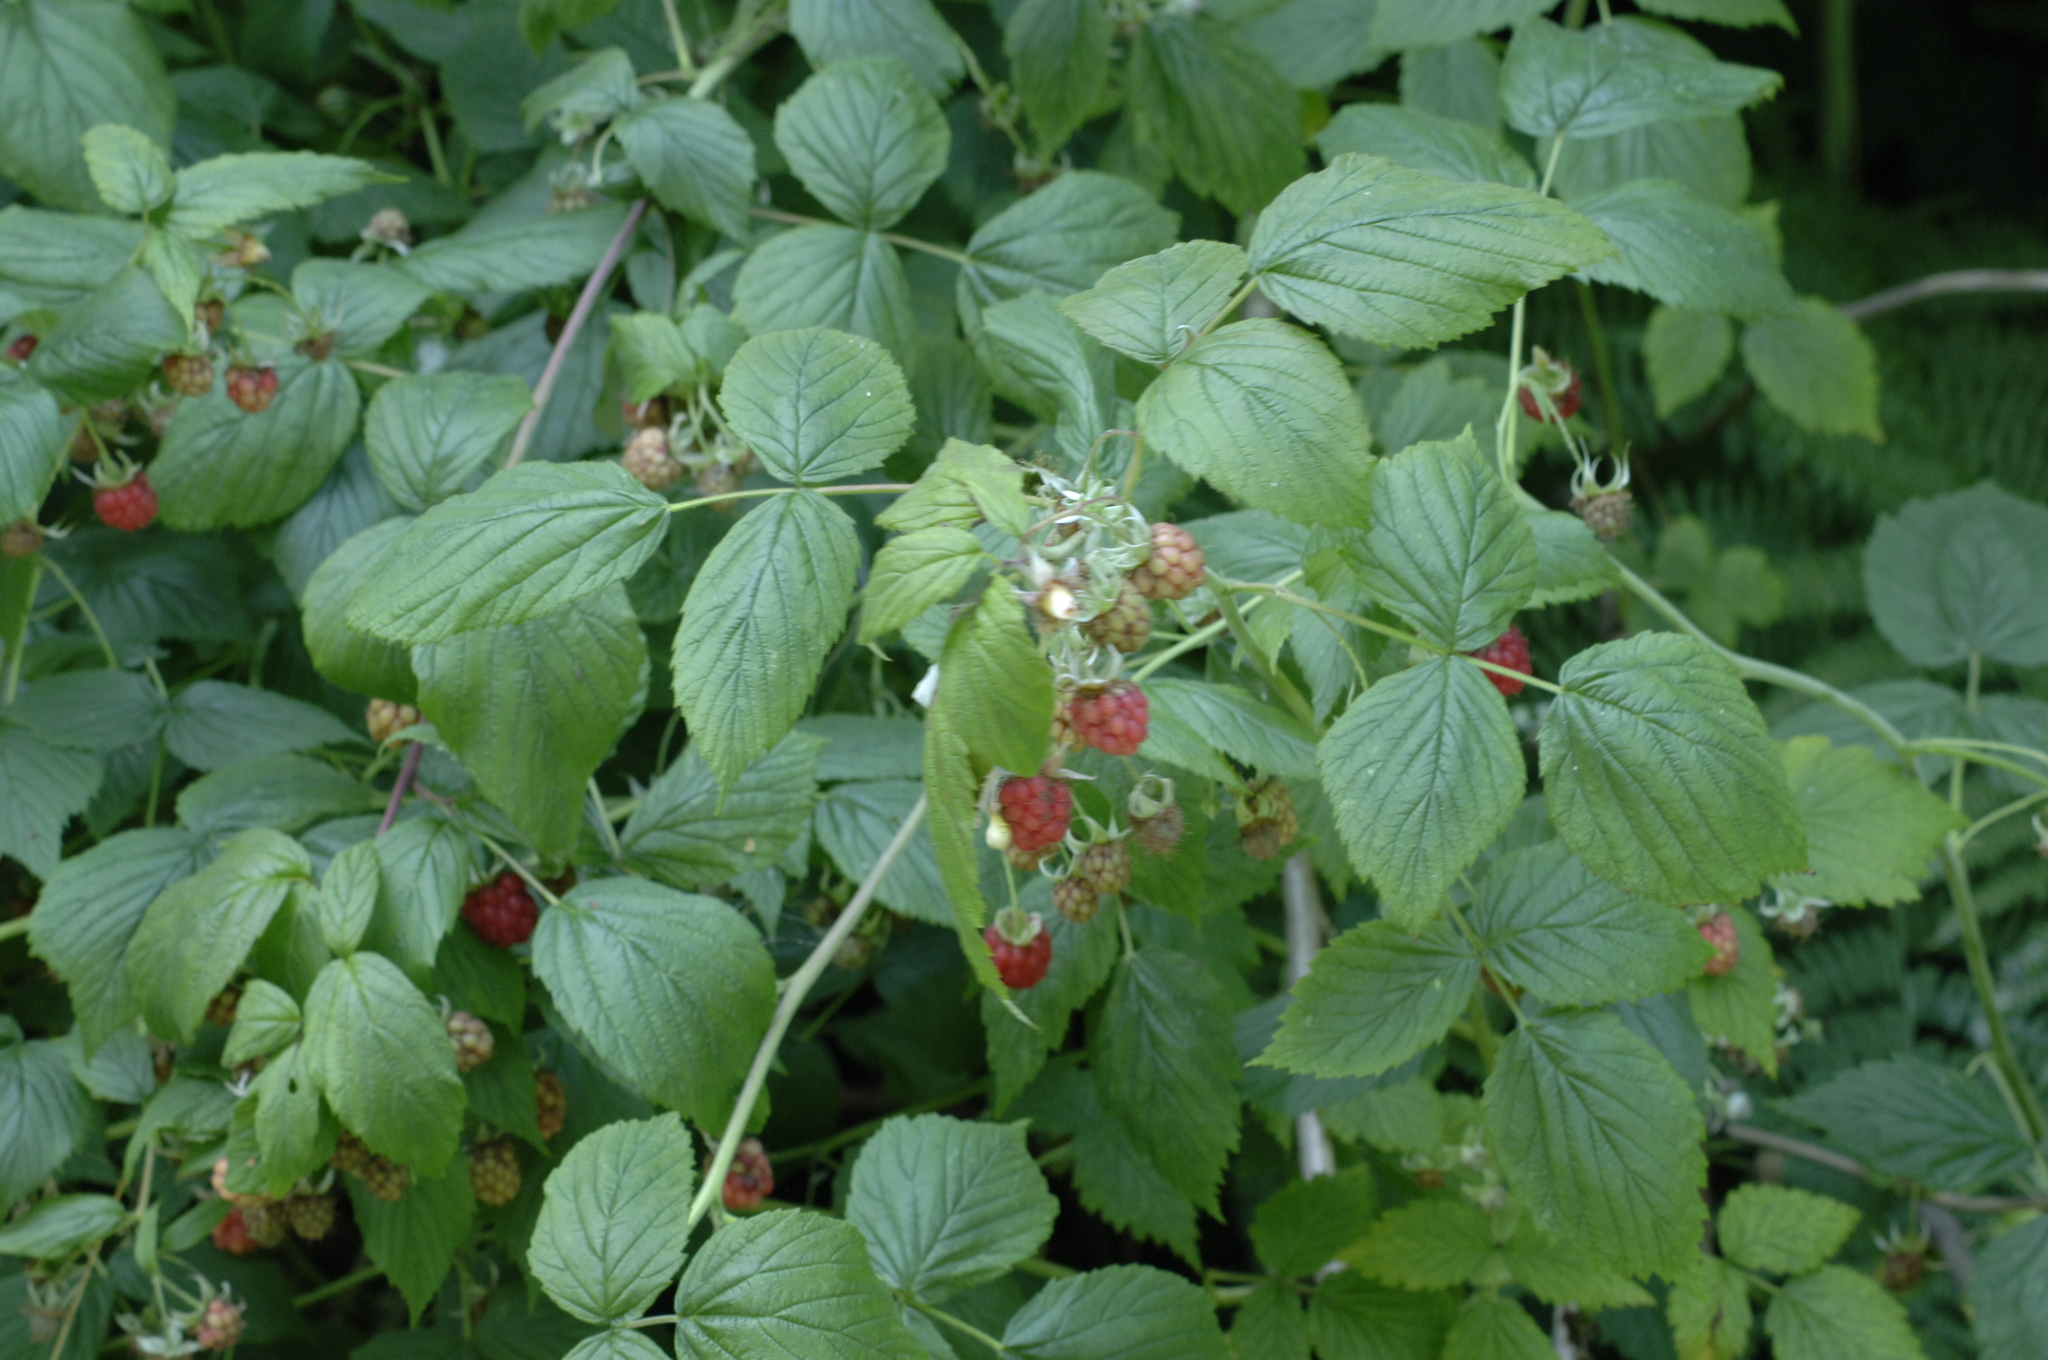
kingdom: Plantae
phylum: Tracheophyta
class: Magnoliopsida
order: Rosales
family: Rosaceae
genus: Rubus
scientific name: Rubus idaeus
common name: Raspberry
